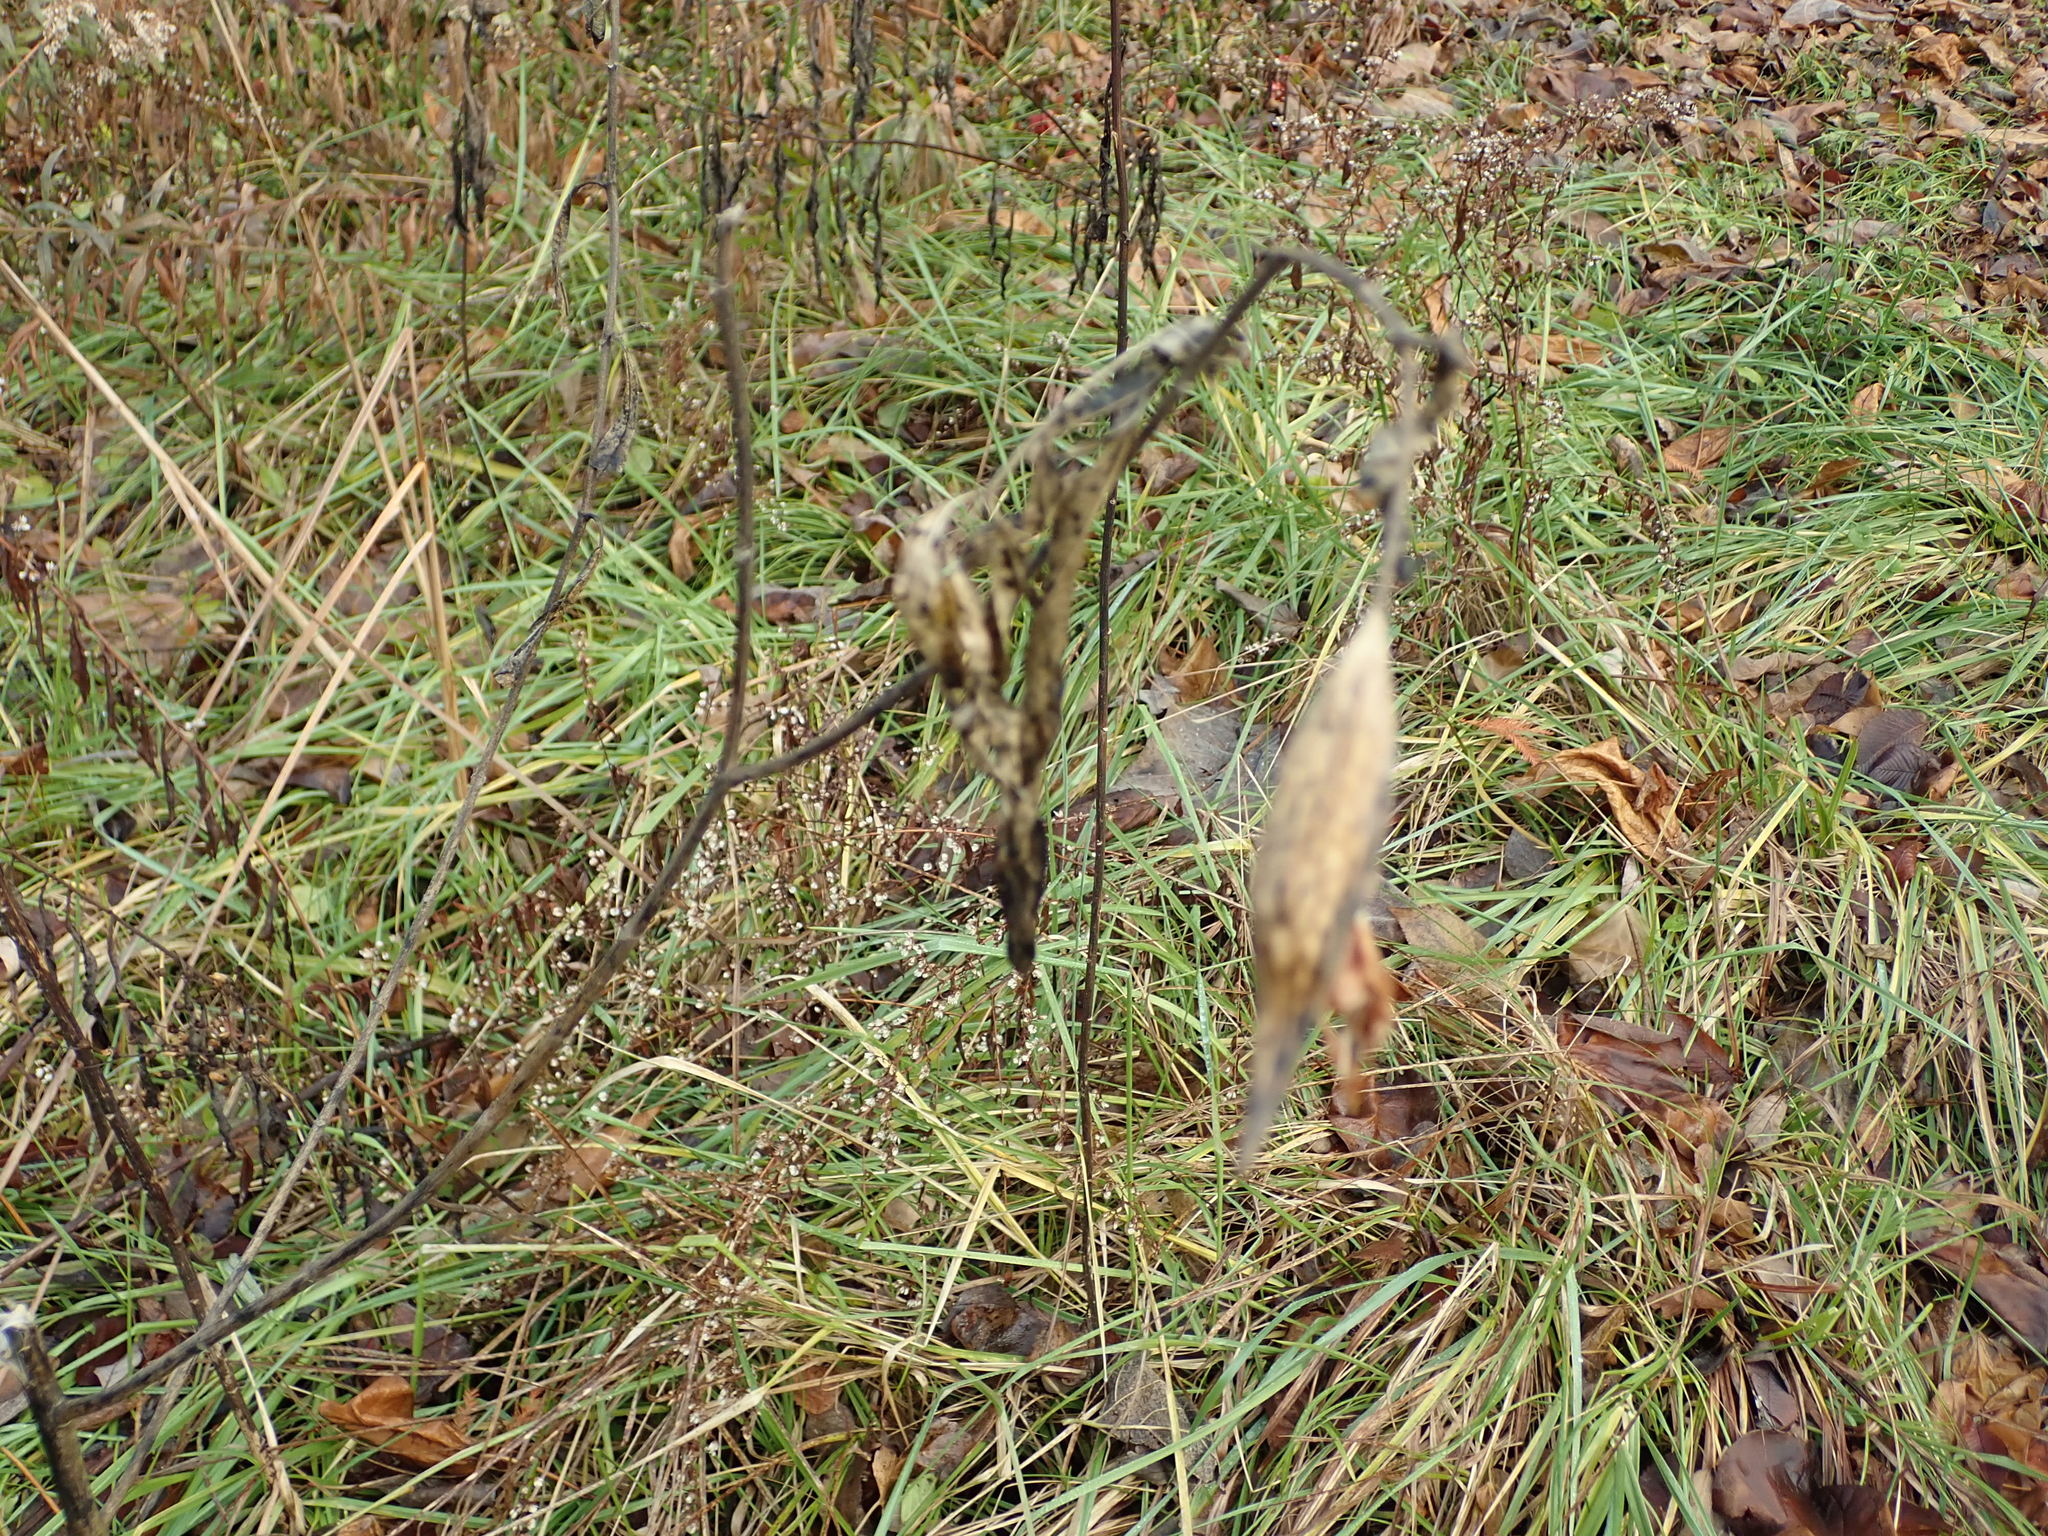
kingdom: Plantae
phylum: Tracheophyta
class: Magnoliopsida
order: Gentianales
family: Apocynaceae
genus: Asclepias
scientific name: Asclepias incarnata
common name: Swamp milkweed
